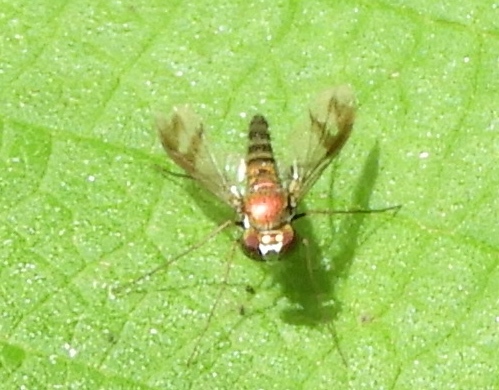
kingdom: Animalia
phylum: Arthropoda
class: Insecta
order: Diptera
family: Dolichopodidae
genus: Condylostylus
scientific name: Condylostylus
